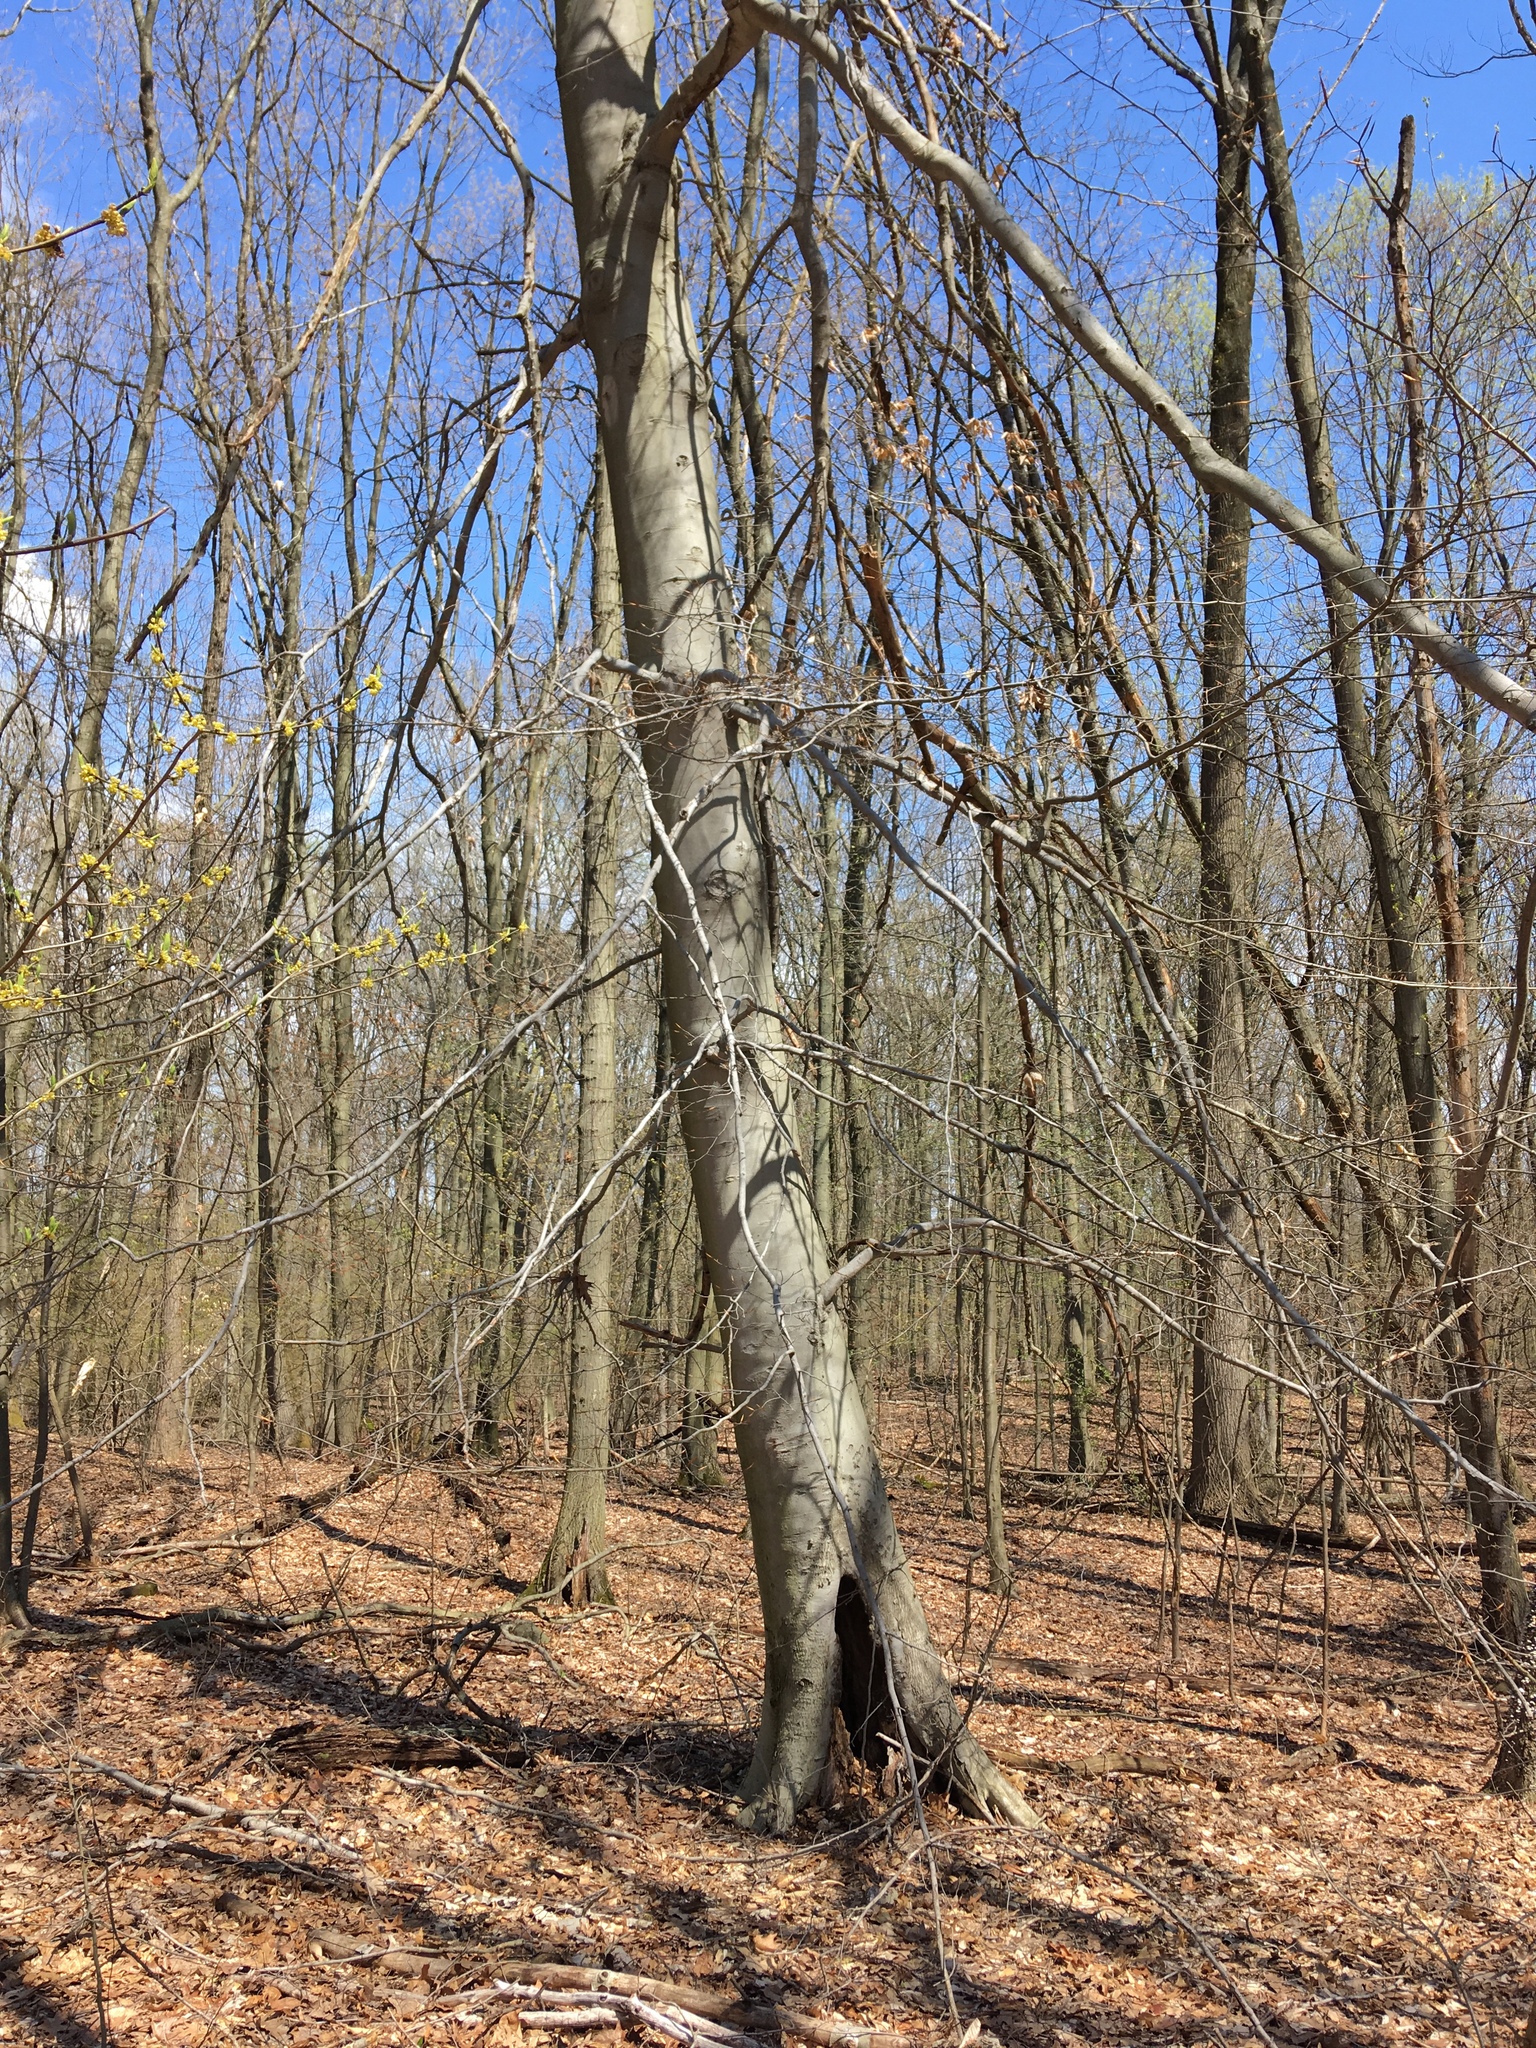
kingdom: Plantae
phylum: Tracheophyta
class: Magnoliopsida
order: Fagales
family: Fagaceae
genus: Fagus
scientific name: Fagus grandifolia
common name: American beech
